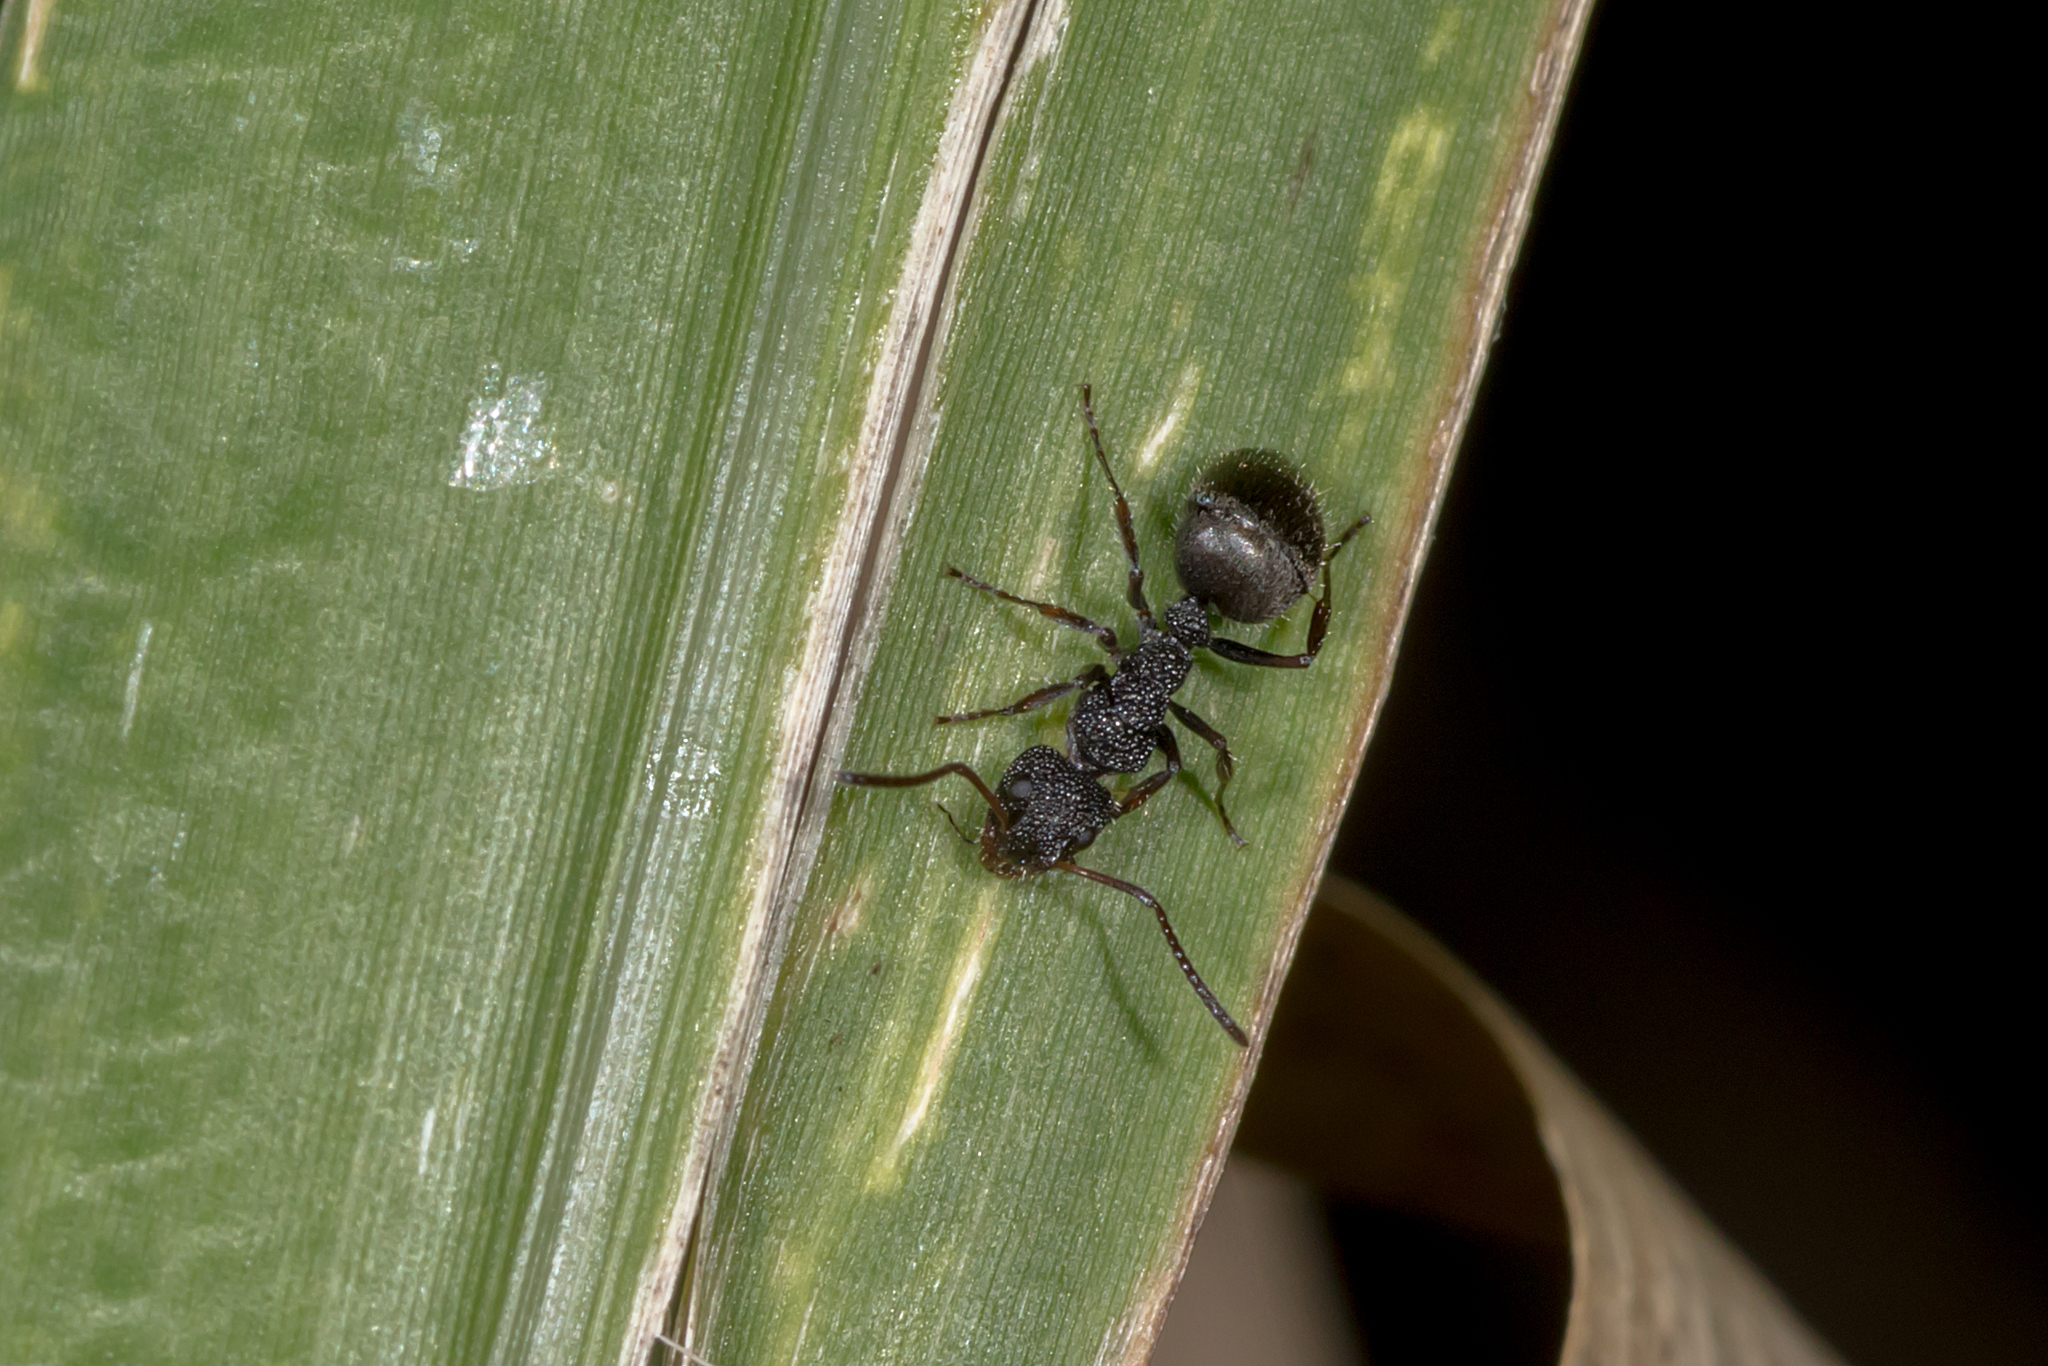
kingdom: Animalia
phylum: Arthropoda
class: Insecta
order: Hymenoptera
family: Formicidae
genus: Dolichoderus
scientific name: Dolichoderus scrobiculatus
